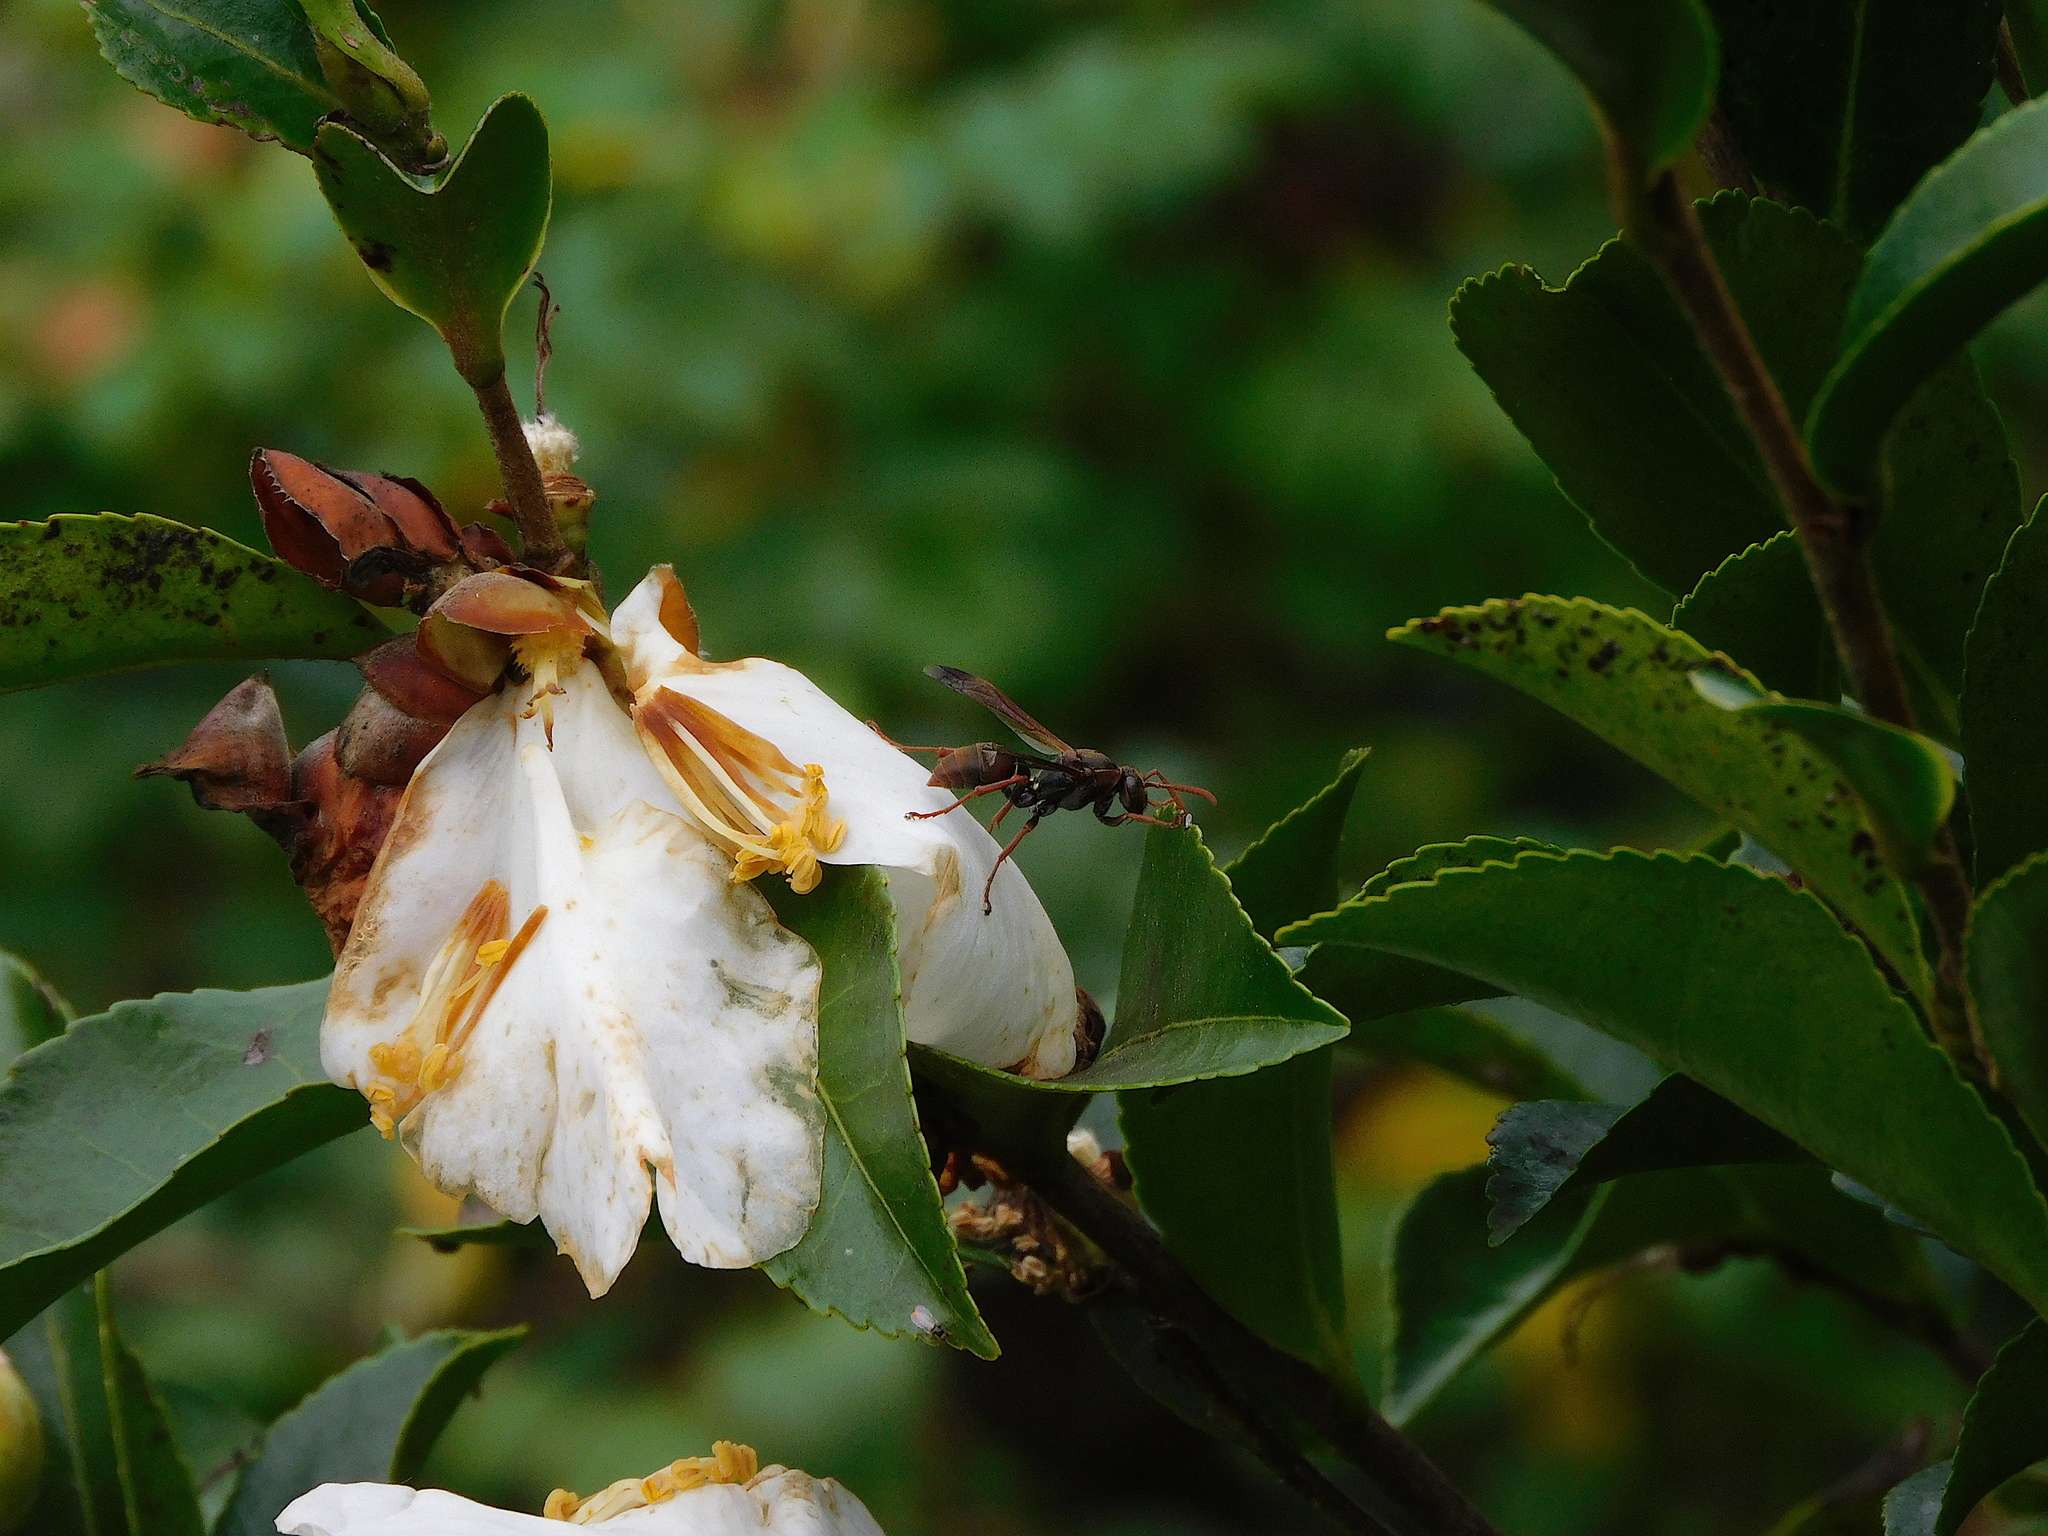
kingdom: Animalia
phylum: Arthropoda
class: Insecta
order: Hymenoptera
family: Eumenidae
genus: Polistes
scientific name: Polistes humilis
